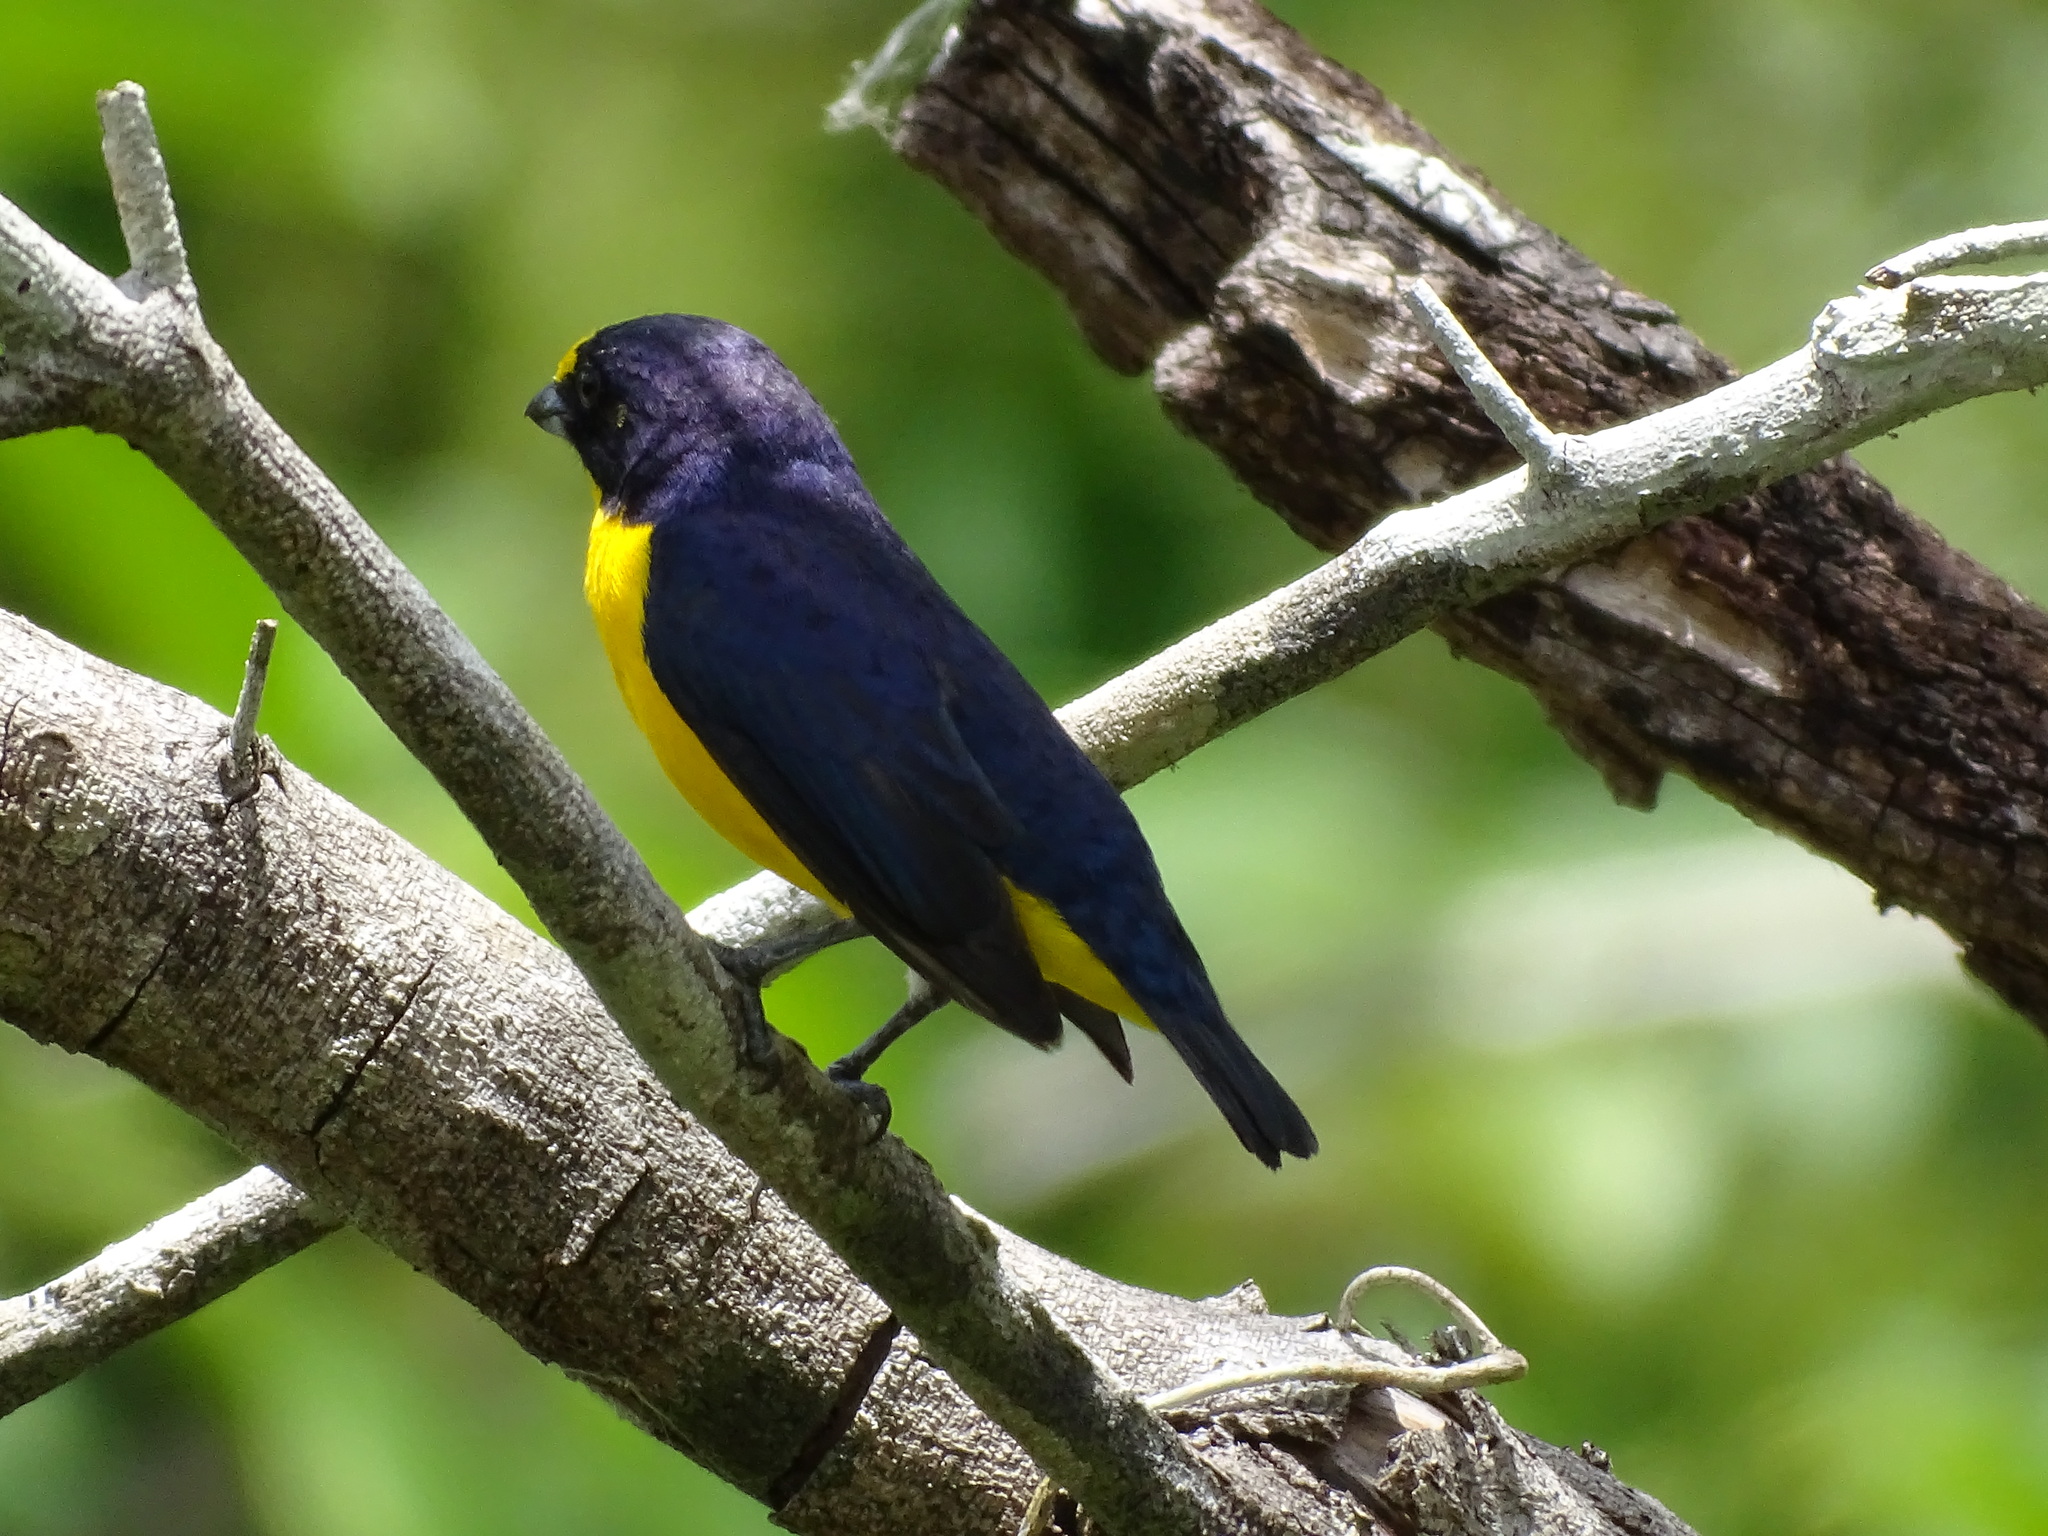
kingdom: Animalia
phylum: Chordata
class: Aves
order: Passeriformes
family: Fringillidae
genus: Euphonia
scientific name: Euphonia hirundinacea
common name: Yellow-throated euphonia
